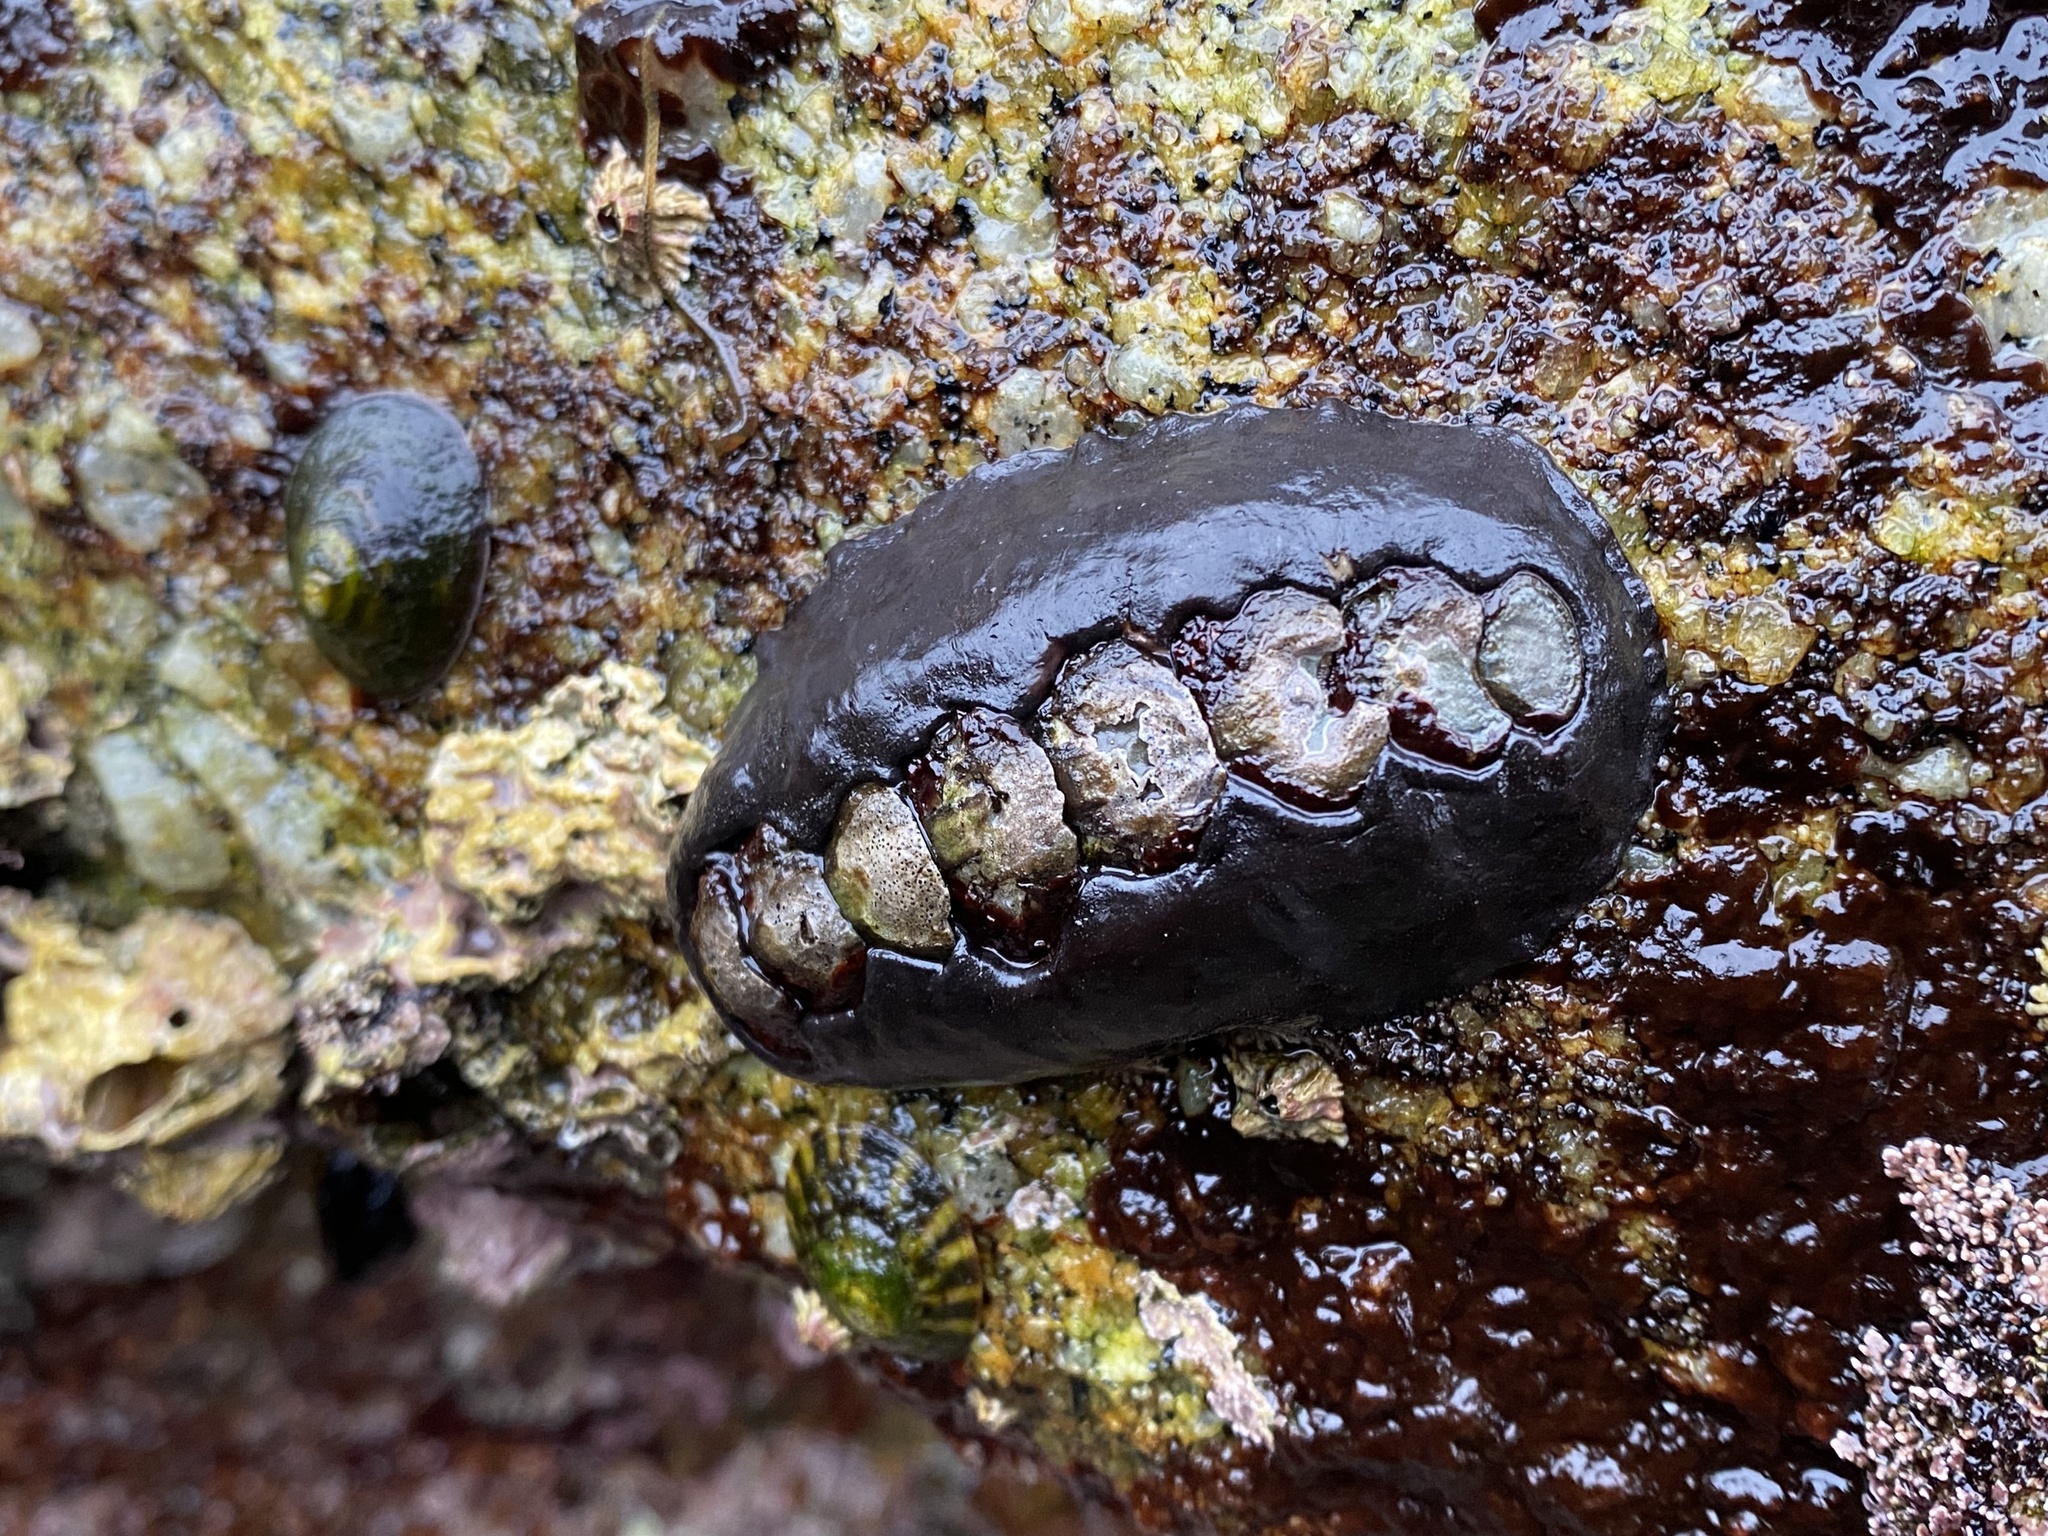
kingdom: Animalia
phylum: Mollusca
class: Polyplacophora
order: Chitonida
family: Mopaliidae
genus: Katharina
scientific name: Katharina tunicata
